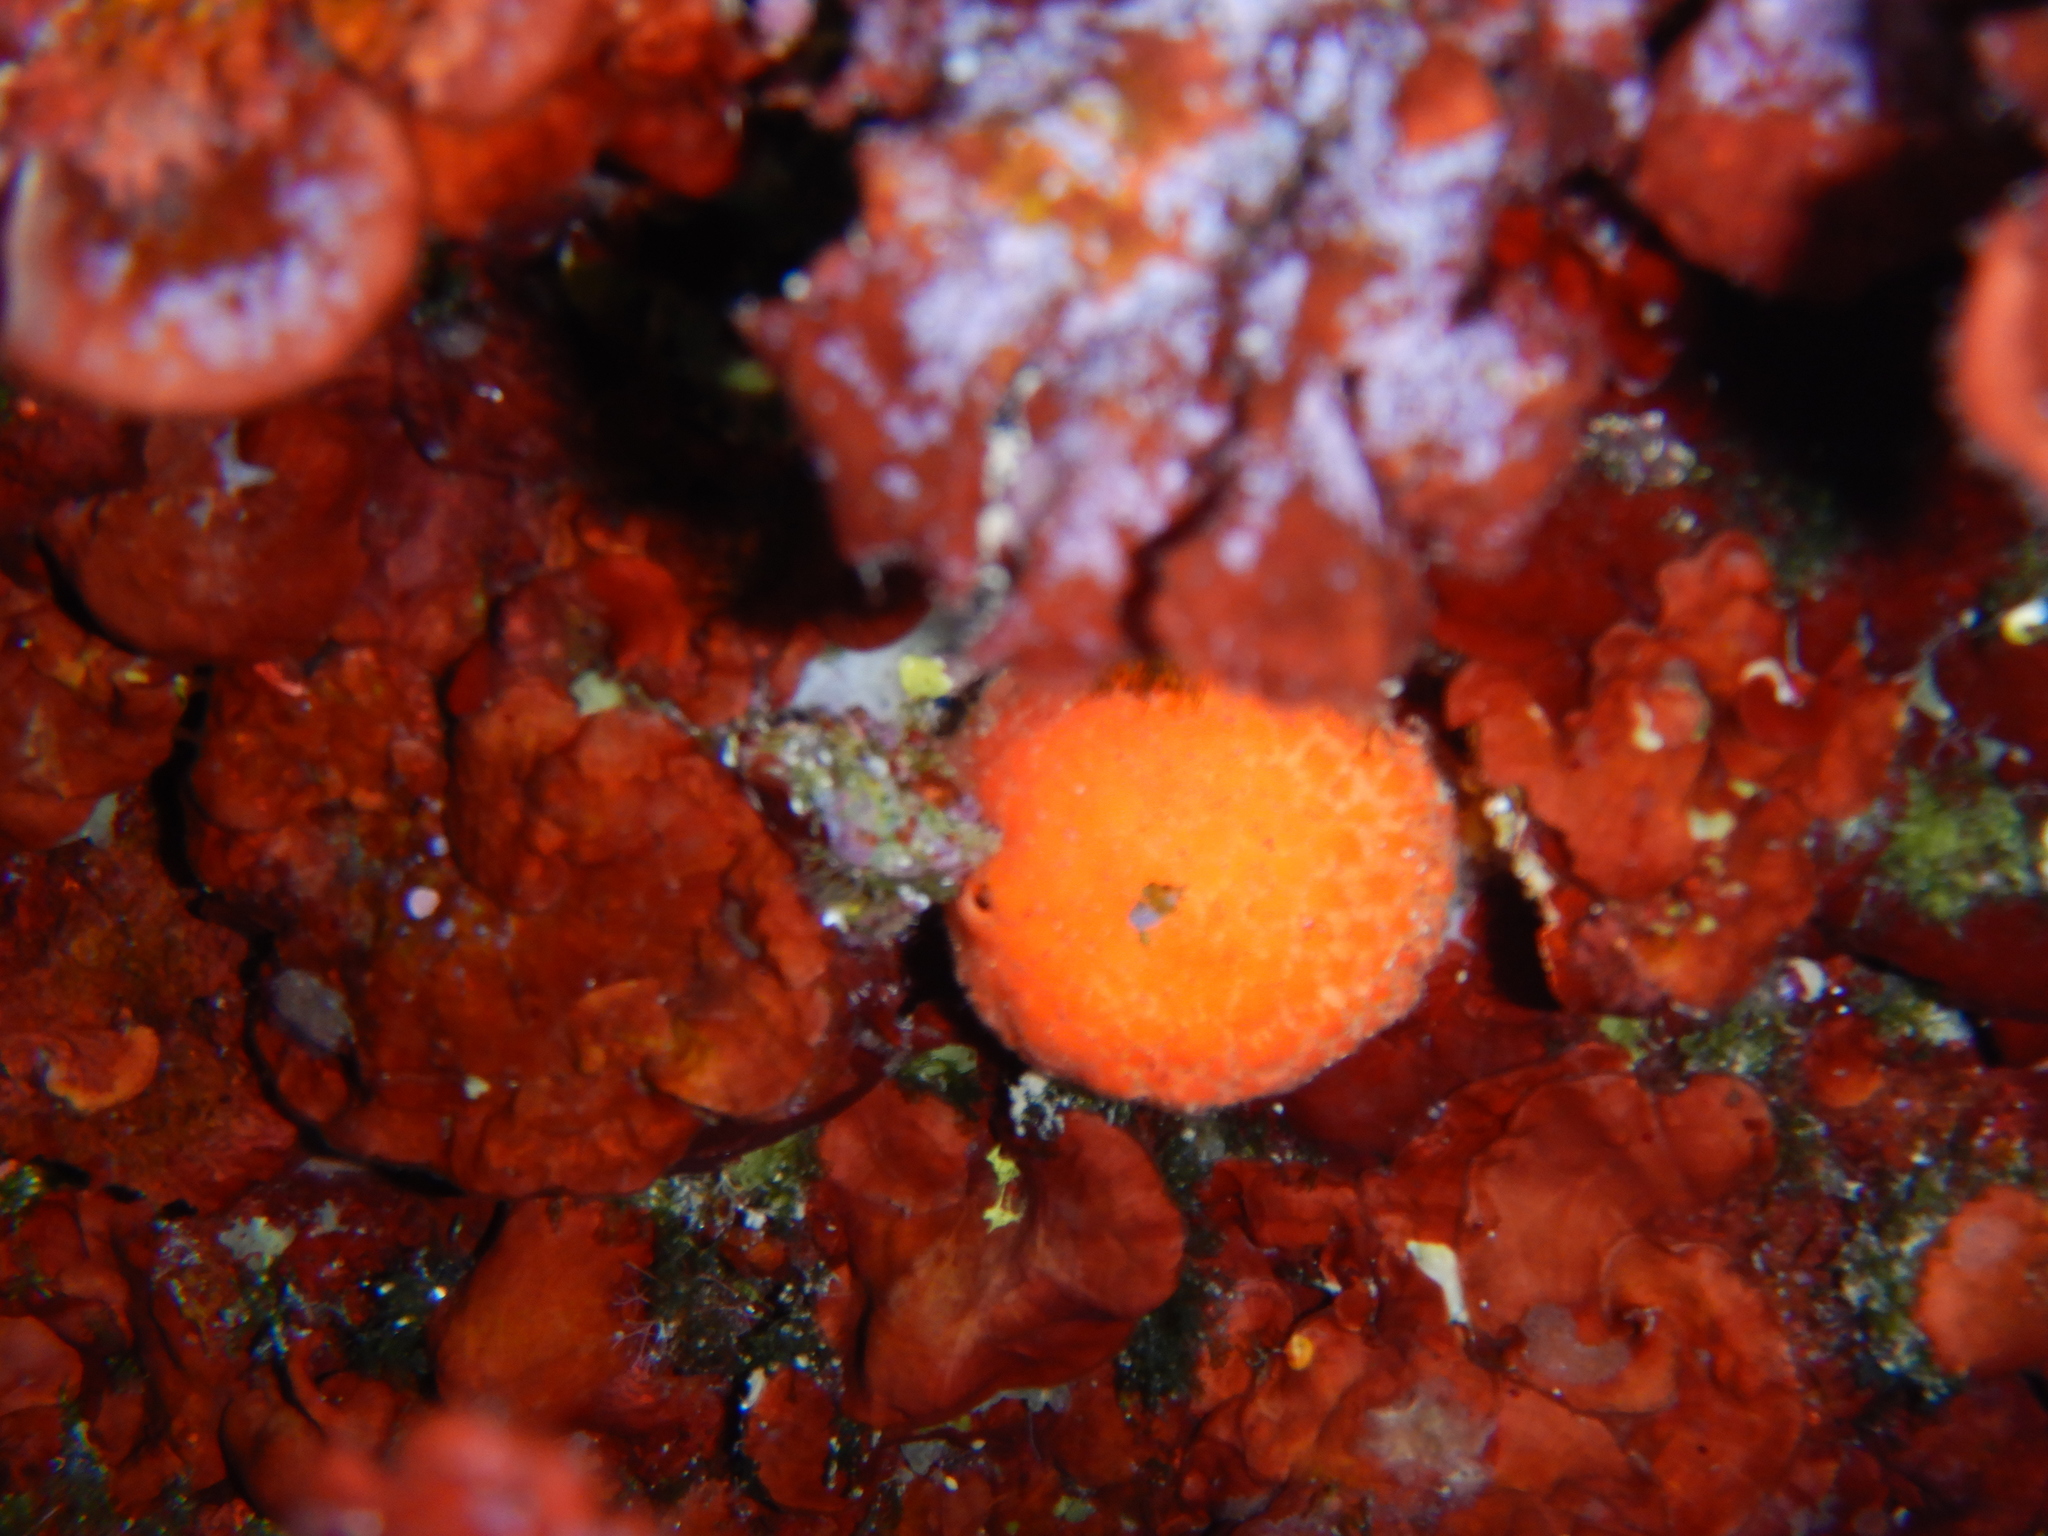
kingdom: Animalia
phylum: Porifera
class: Demospongiae
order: Tethyida
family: Tethyidae
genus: Tethya
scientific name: Tethya aurantium
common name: Golf ball sponge
